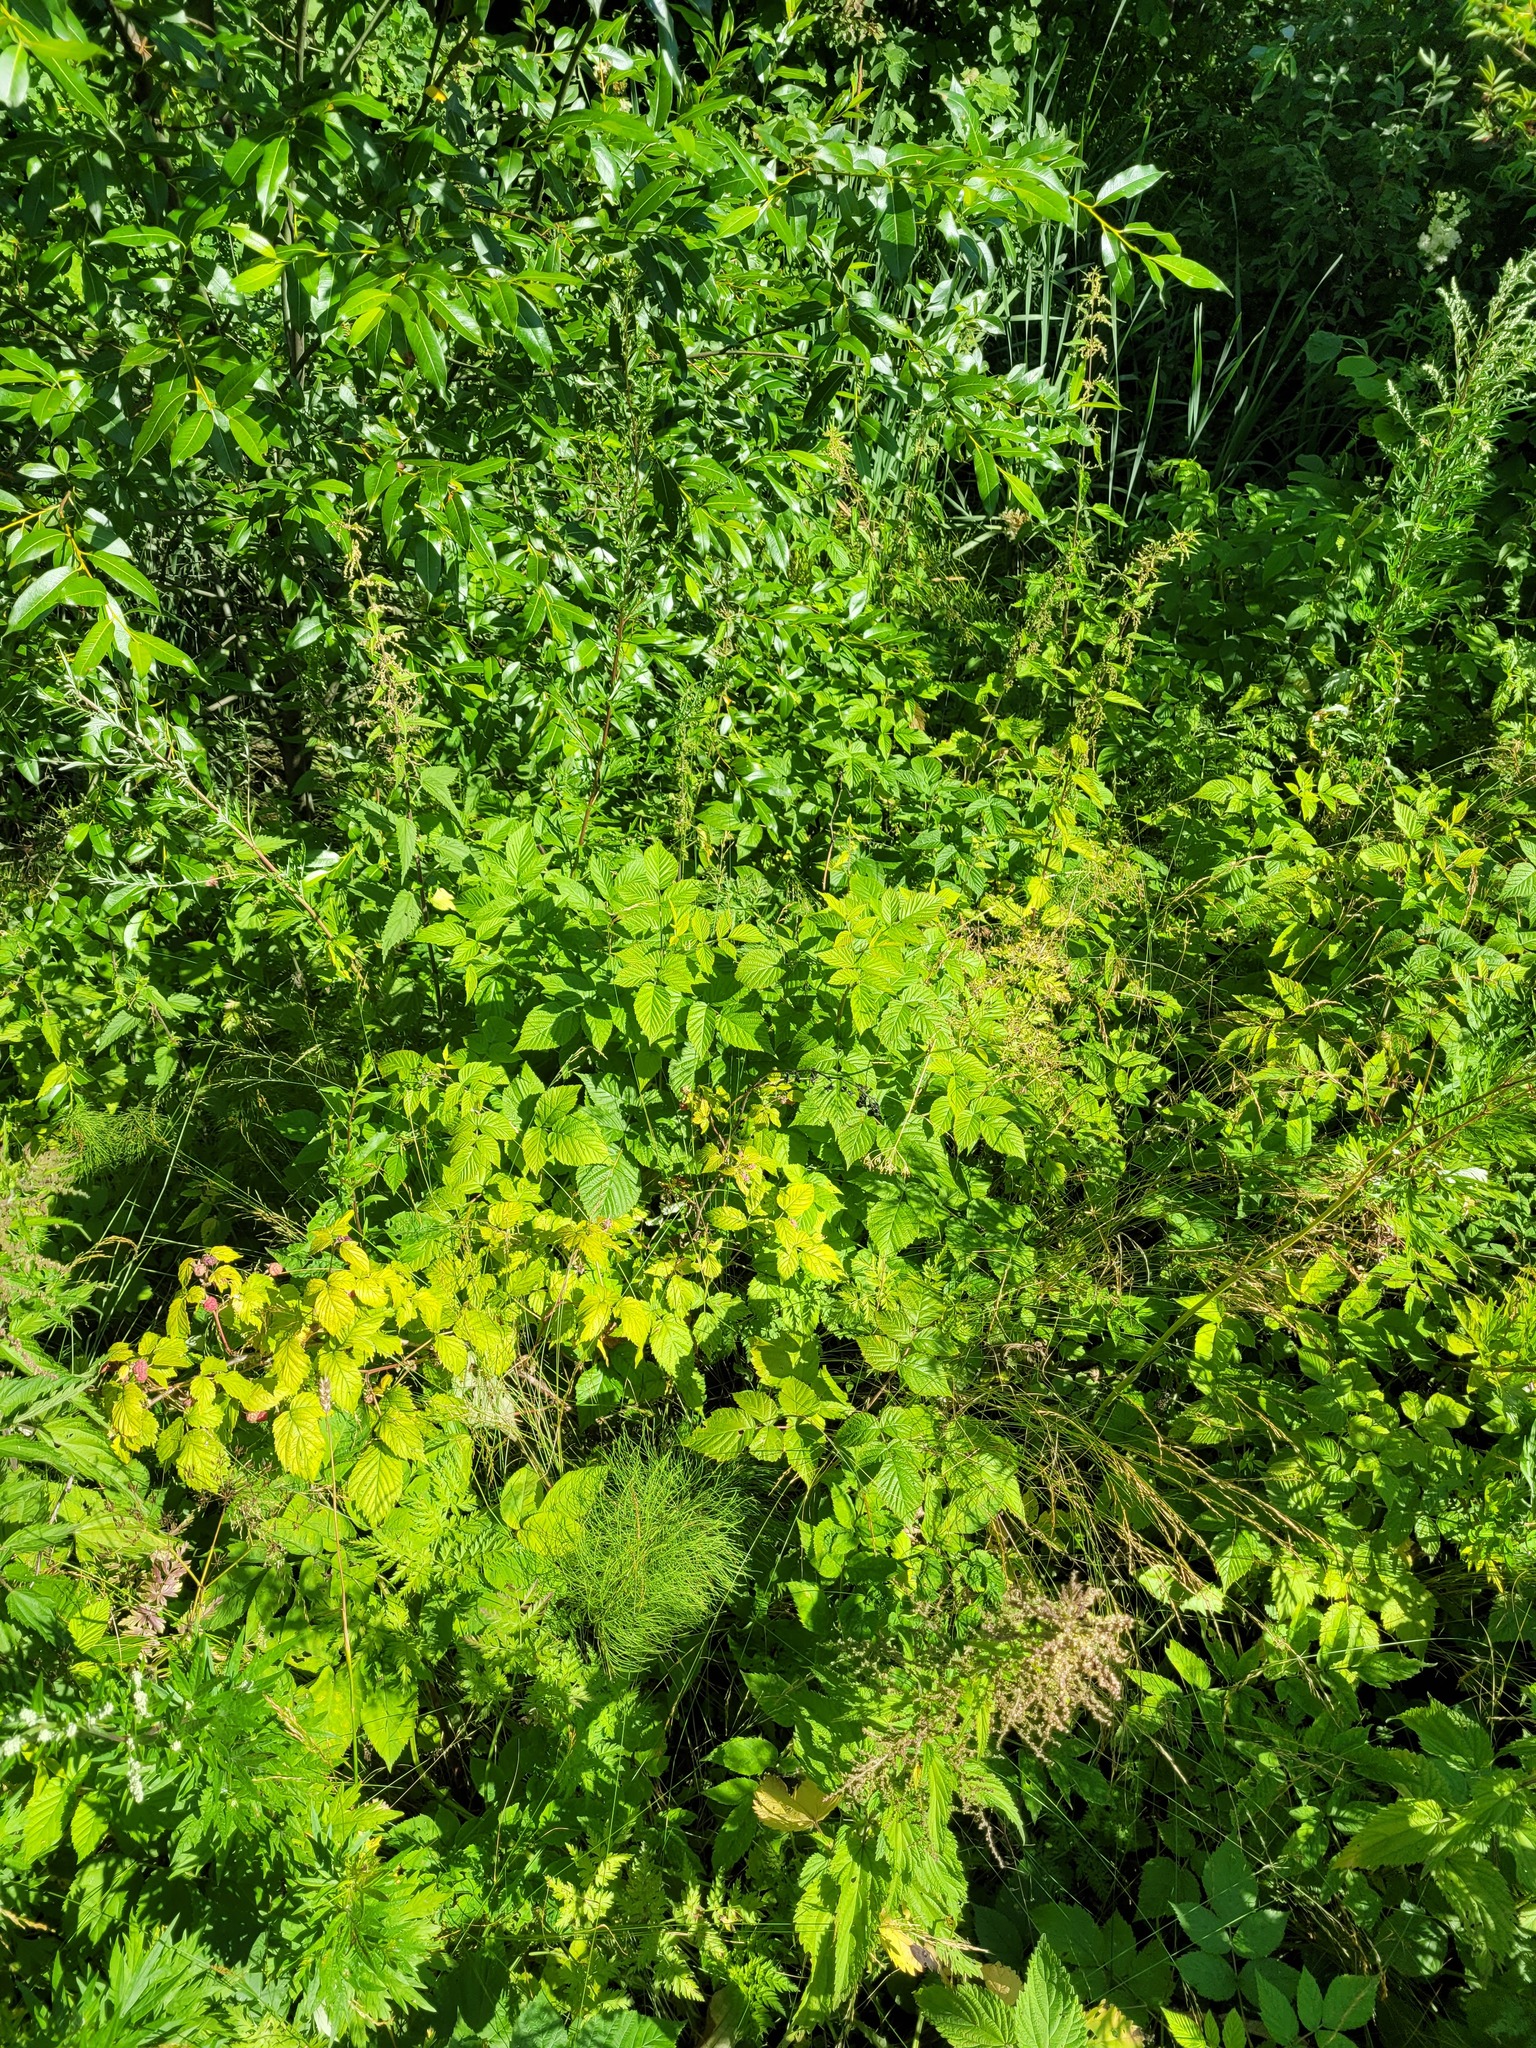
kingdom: Plantae
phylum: Tracheophyta
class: Magnoliopsida
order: Rosales
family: Rosaceae
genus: Rubus
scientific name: Rubus idaeus
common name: Raspberry
